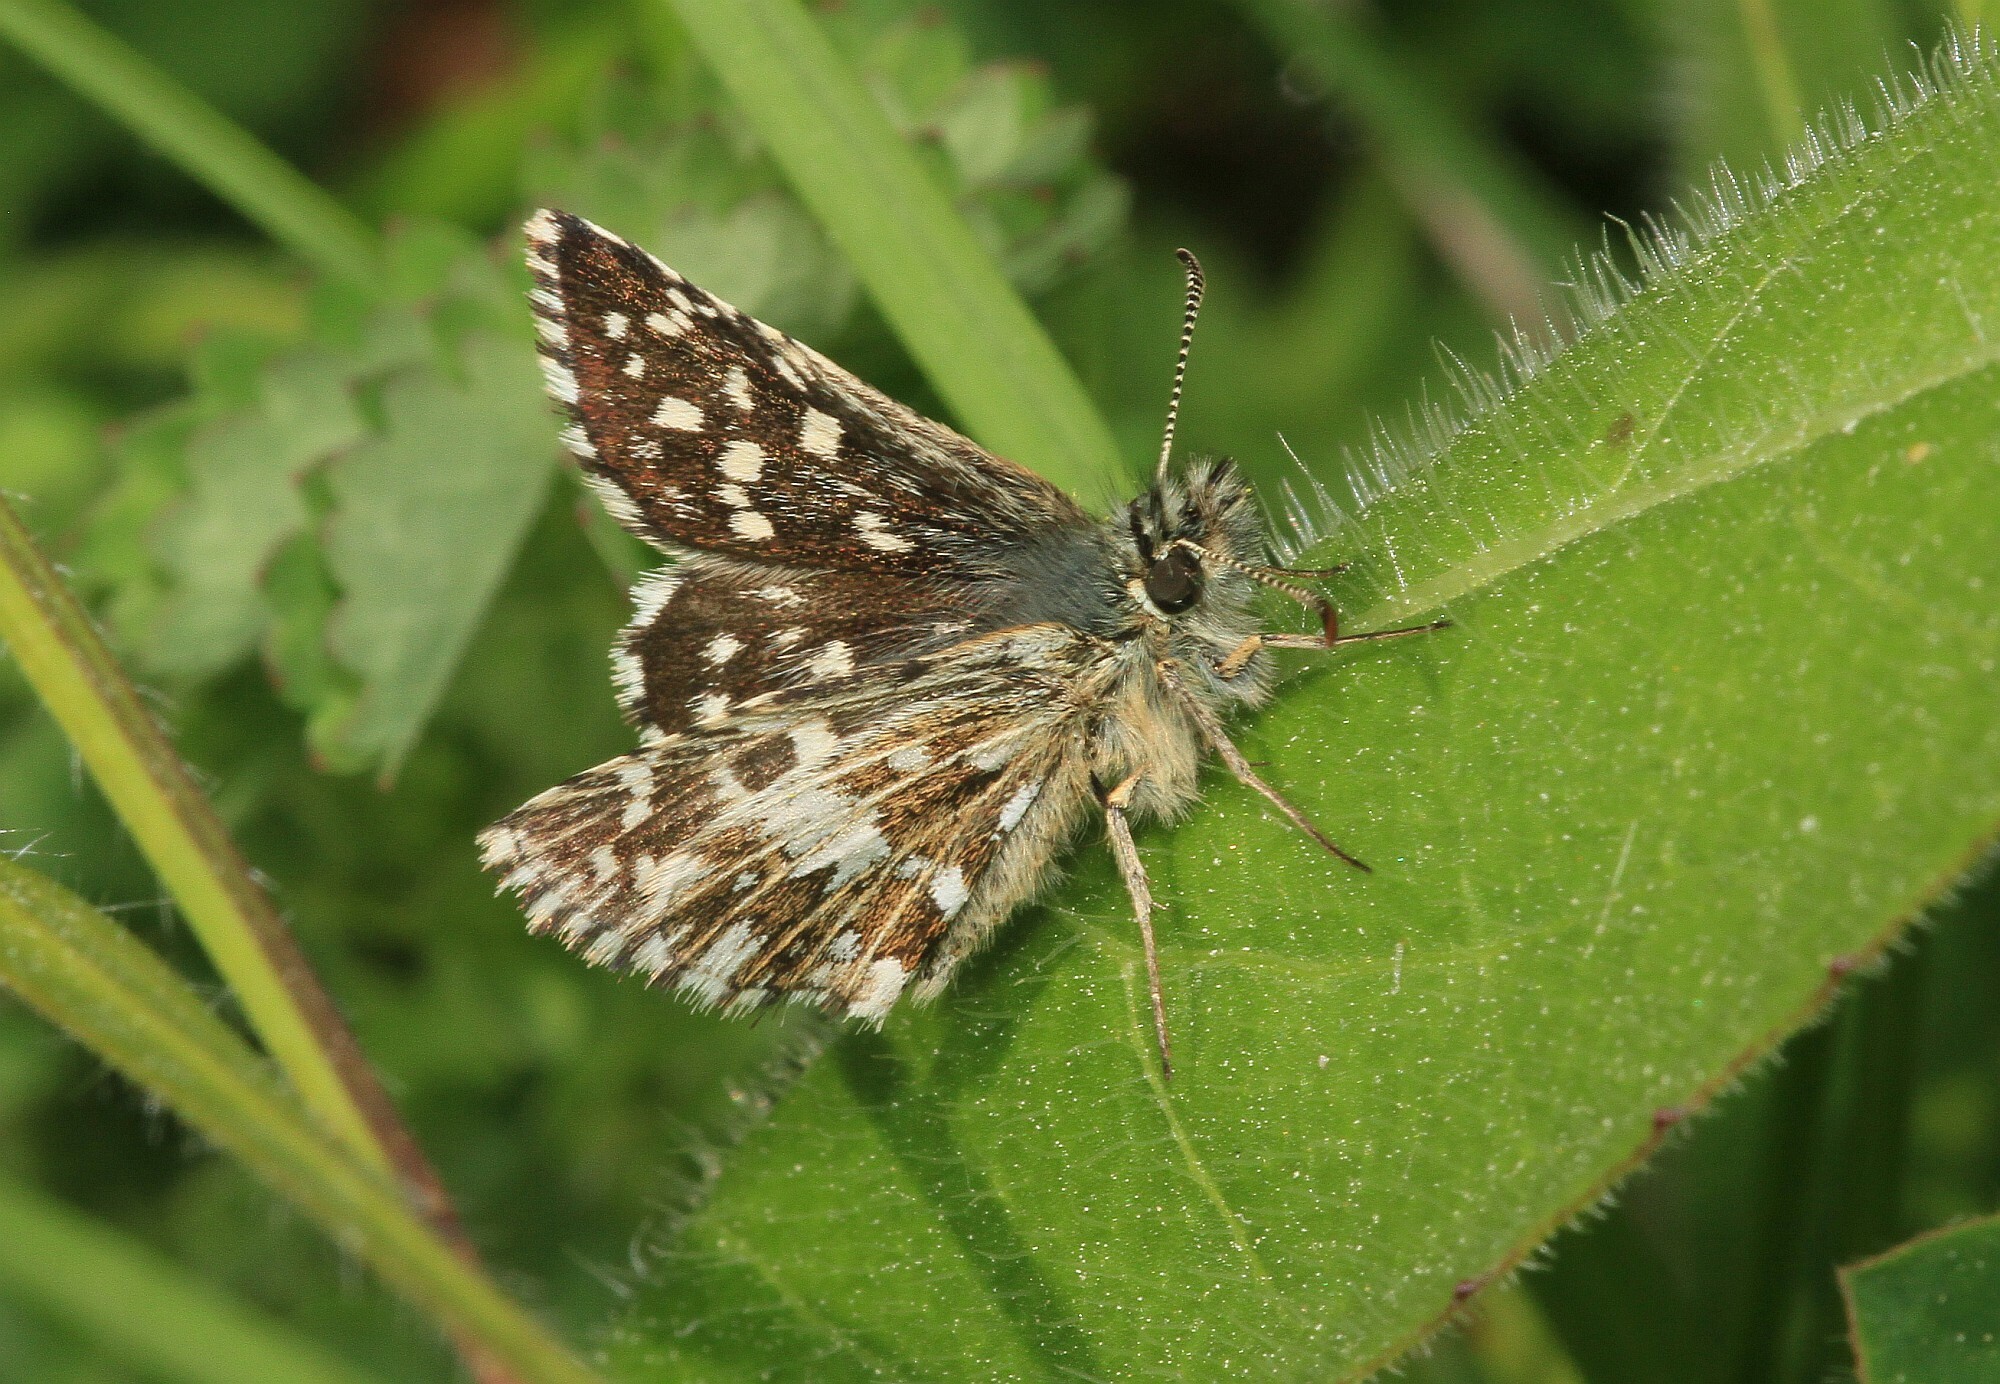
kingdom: Animalia
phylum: Arthropoda
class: Insecta
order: Lepidoptera
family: Hesperiidae
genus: Pyrgus
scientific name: Pyrgus malvae
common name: Grizzled skipper
